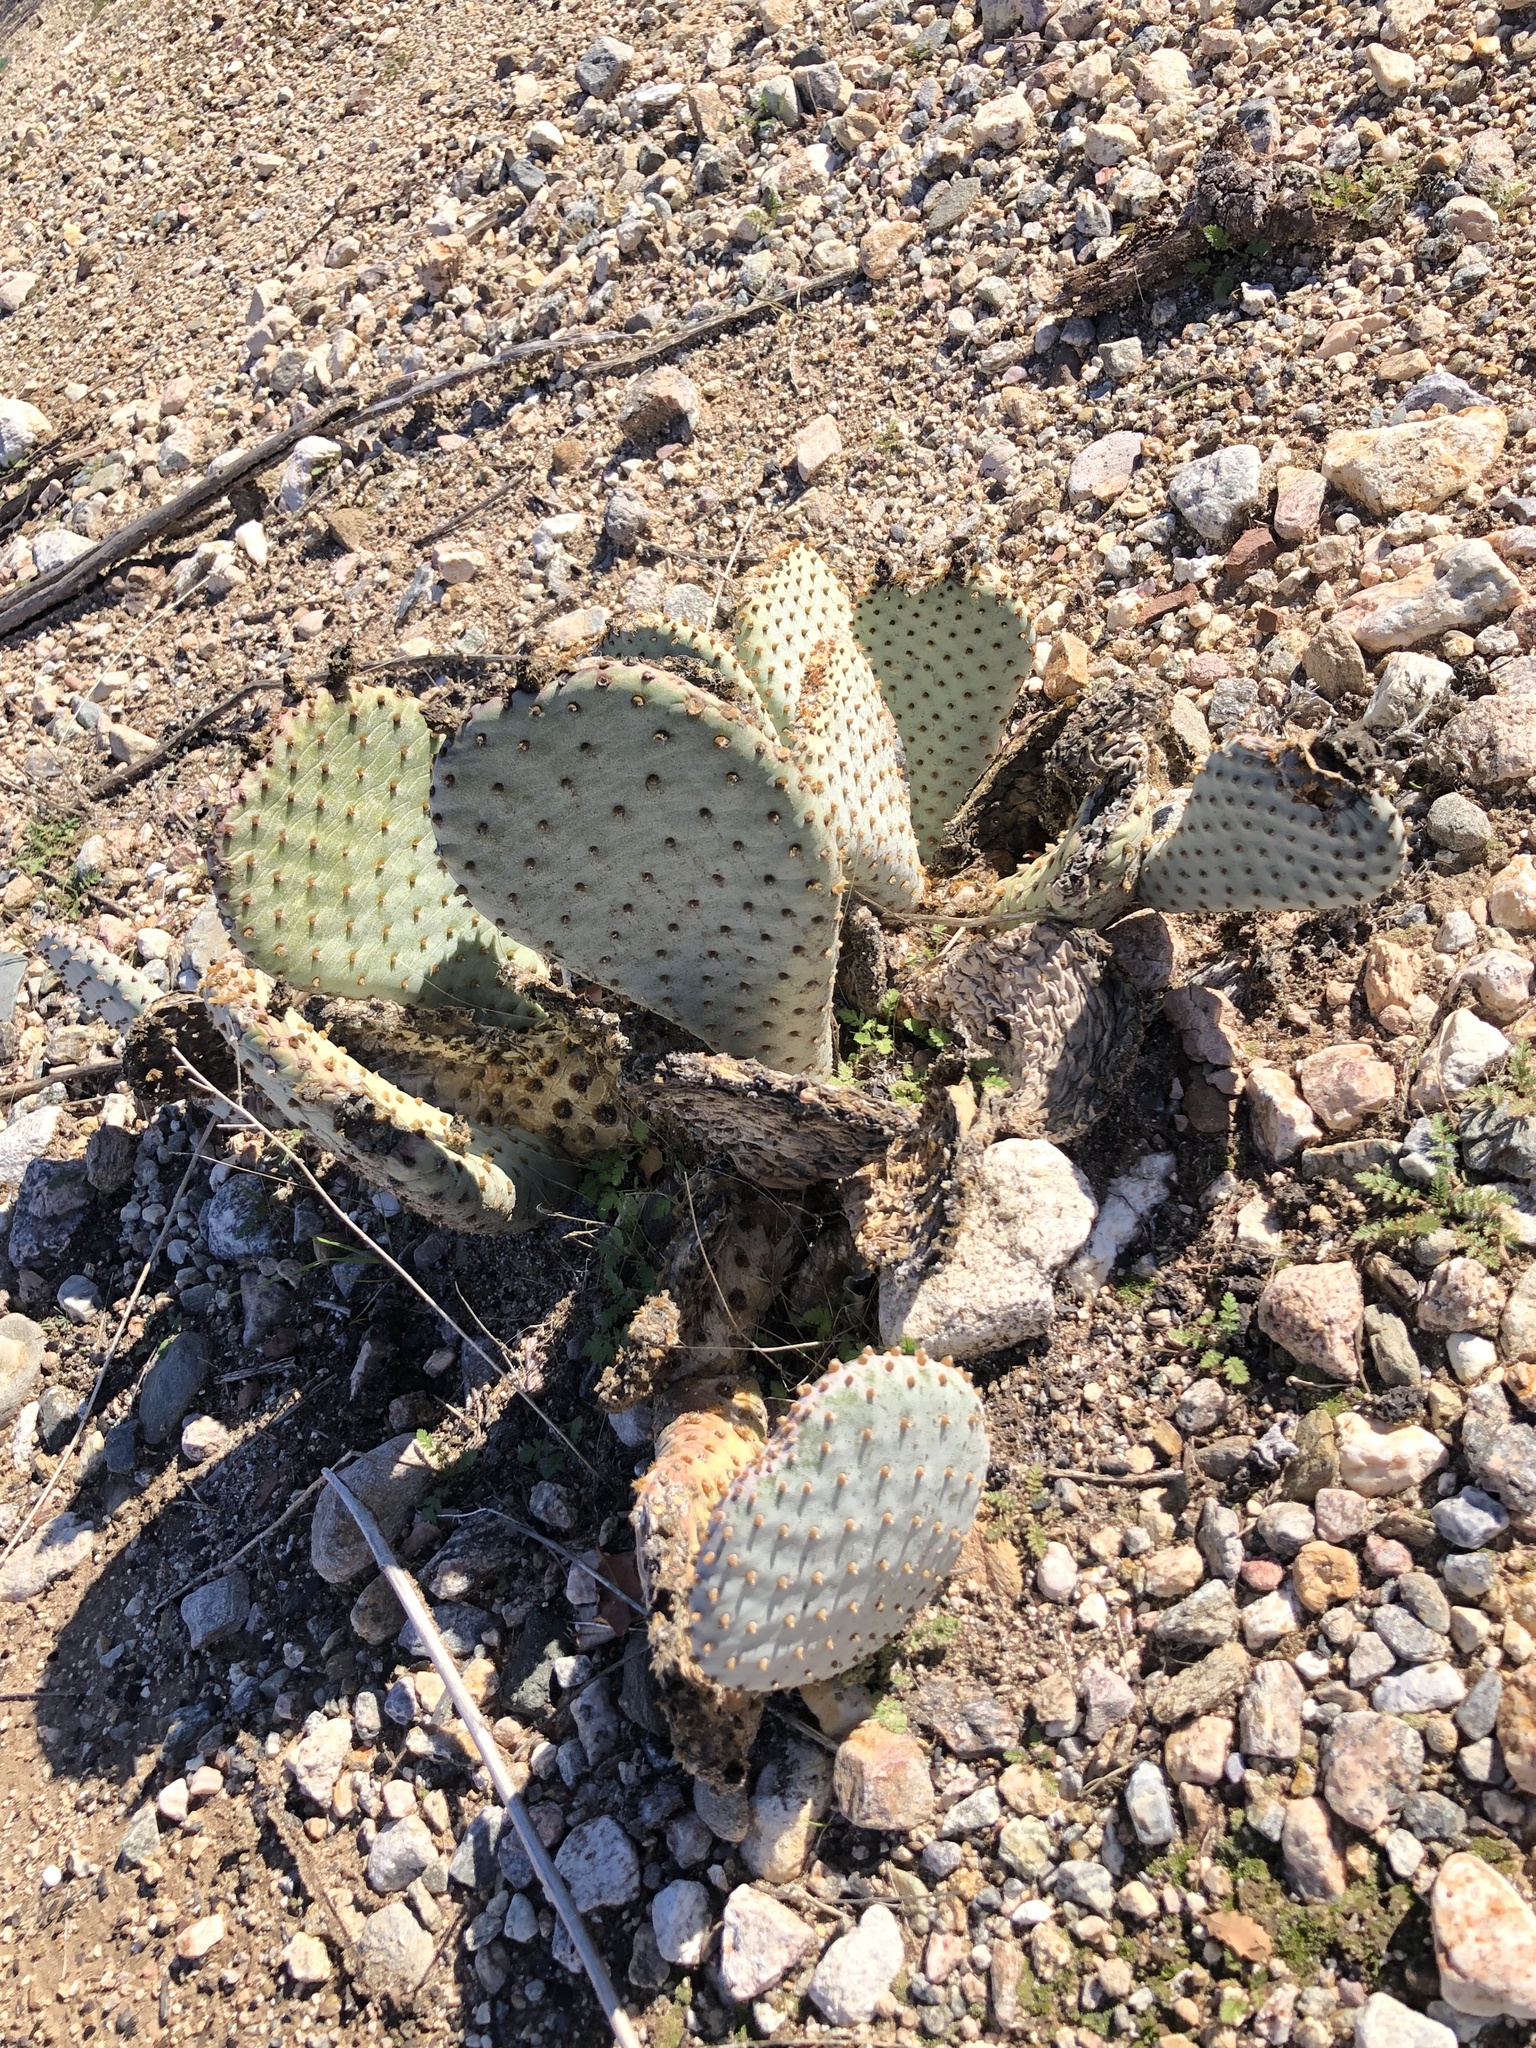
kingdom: Plantae
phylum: Tracheophyta
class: Magnoliopsida
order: Caryophyllales
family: Cactaceae
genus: Opuntia
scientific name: Opuntia basilaris
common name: Beavertail prickly-pear
